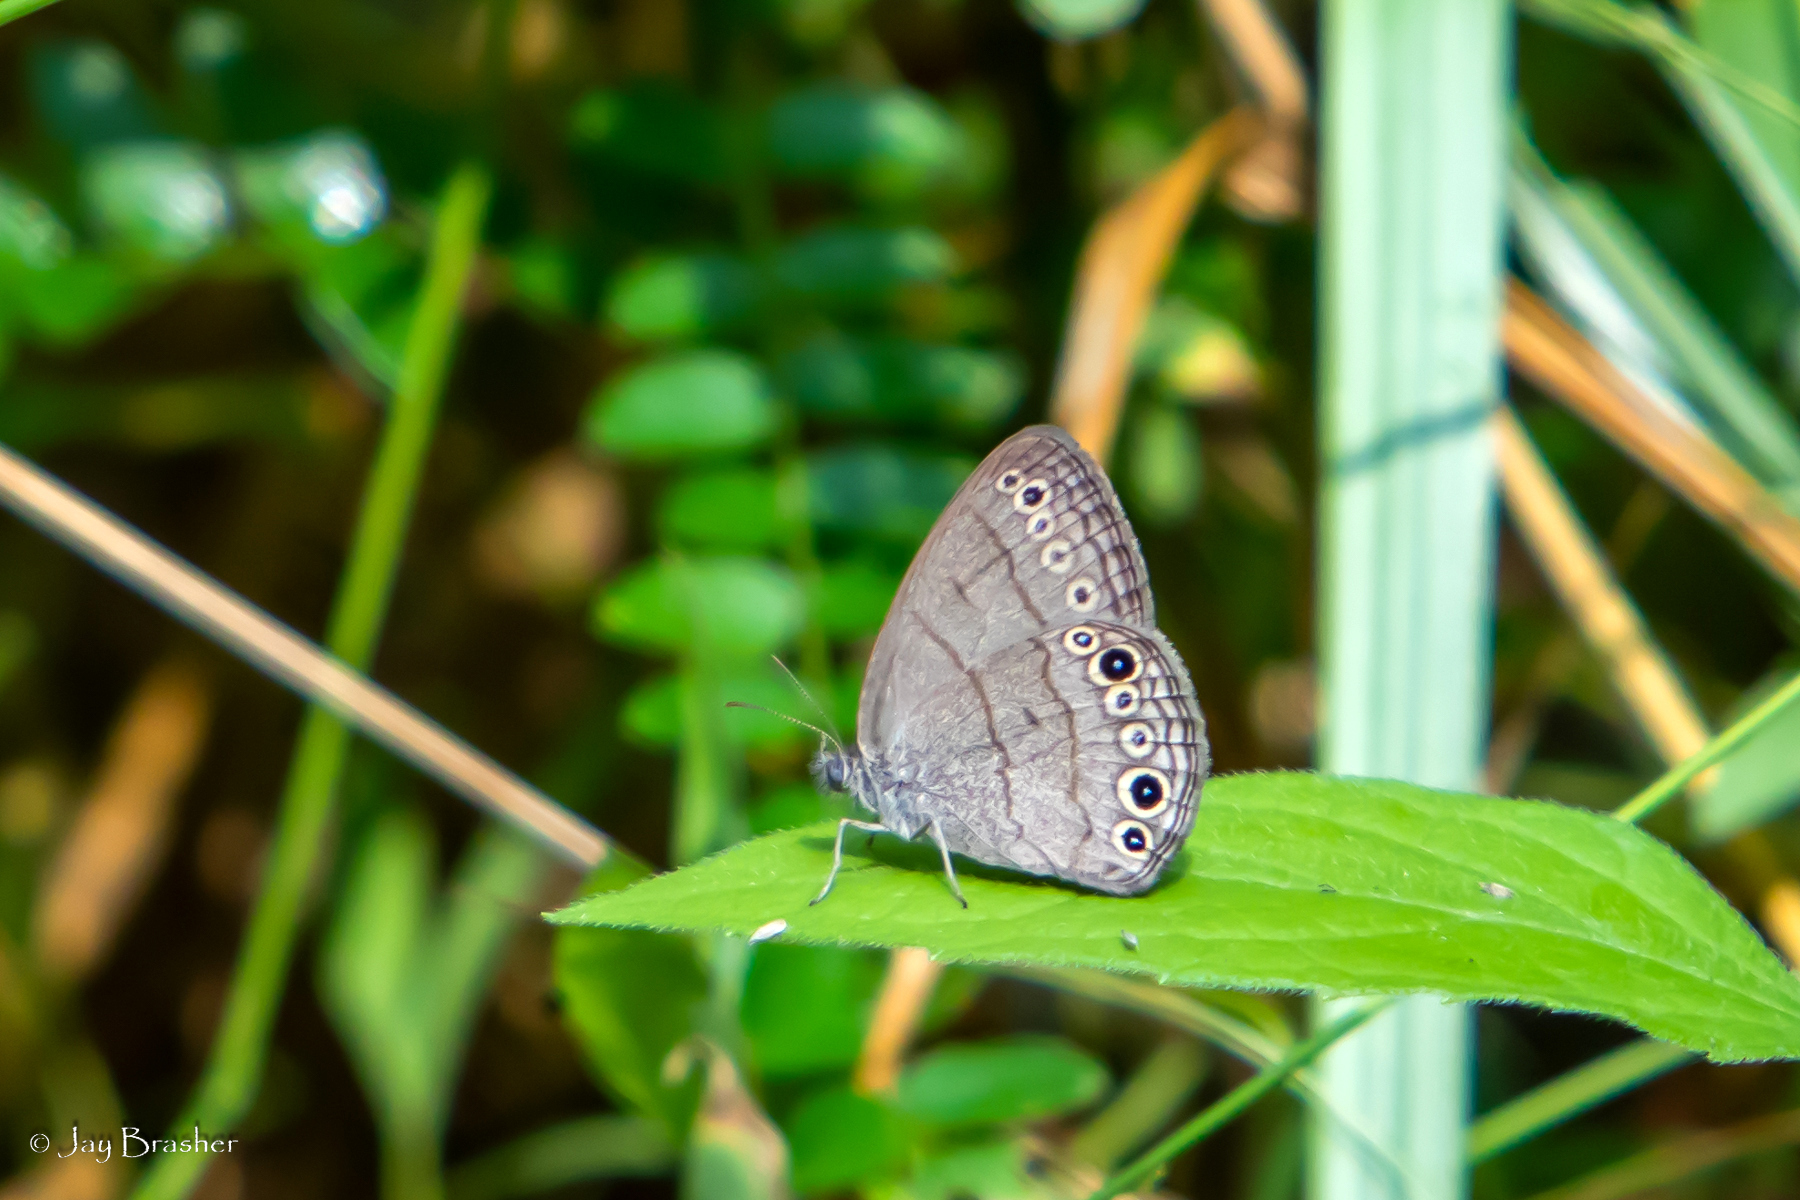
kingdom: Animalia
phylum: Arthropoda
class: Insecta
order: Lepidoptera
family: Nymphalidae
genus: Hermeuptychia
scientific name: Hermeuptychia hermes
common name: Hermes satyr
